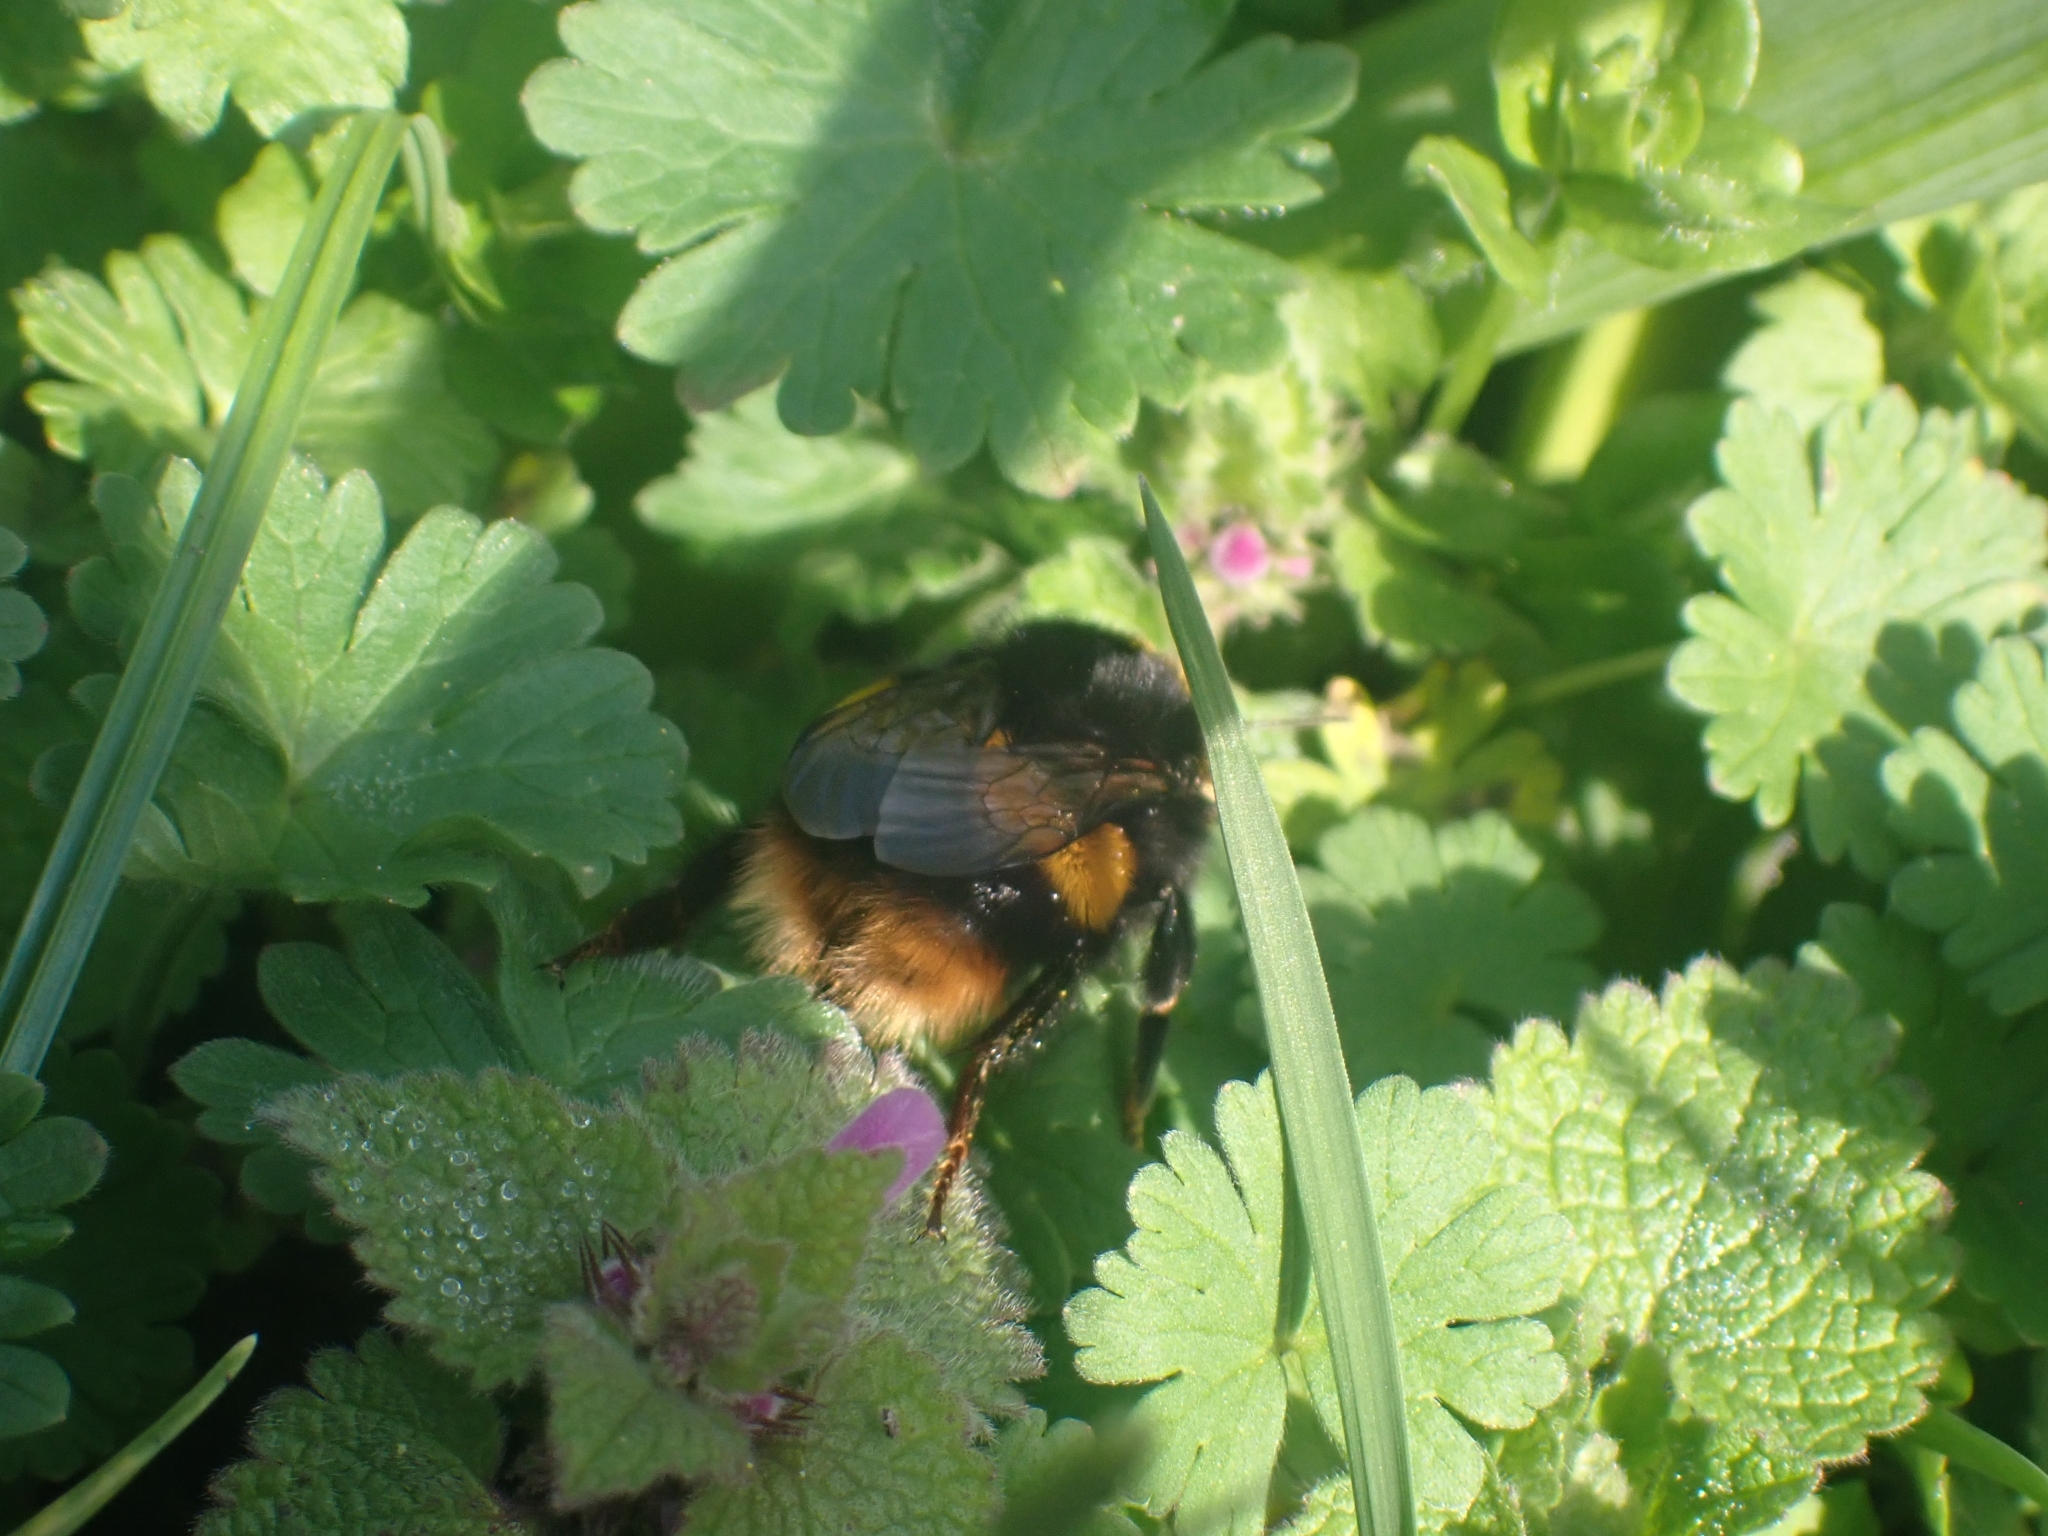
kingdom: Animalia
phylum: Arthropoda
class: Insecta
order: Hymenoptera
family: Apidae
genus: Bombus
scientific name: Bombus terrestris
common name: Buff-tailed bumblebee
